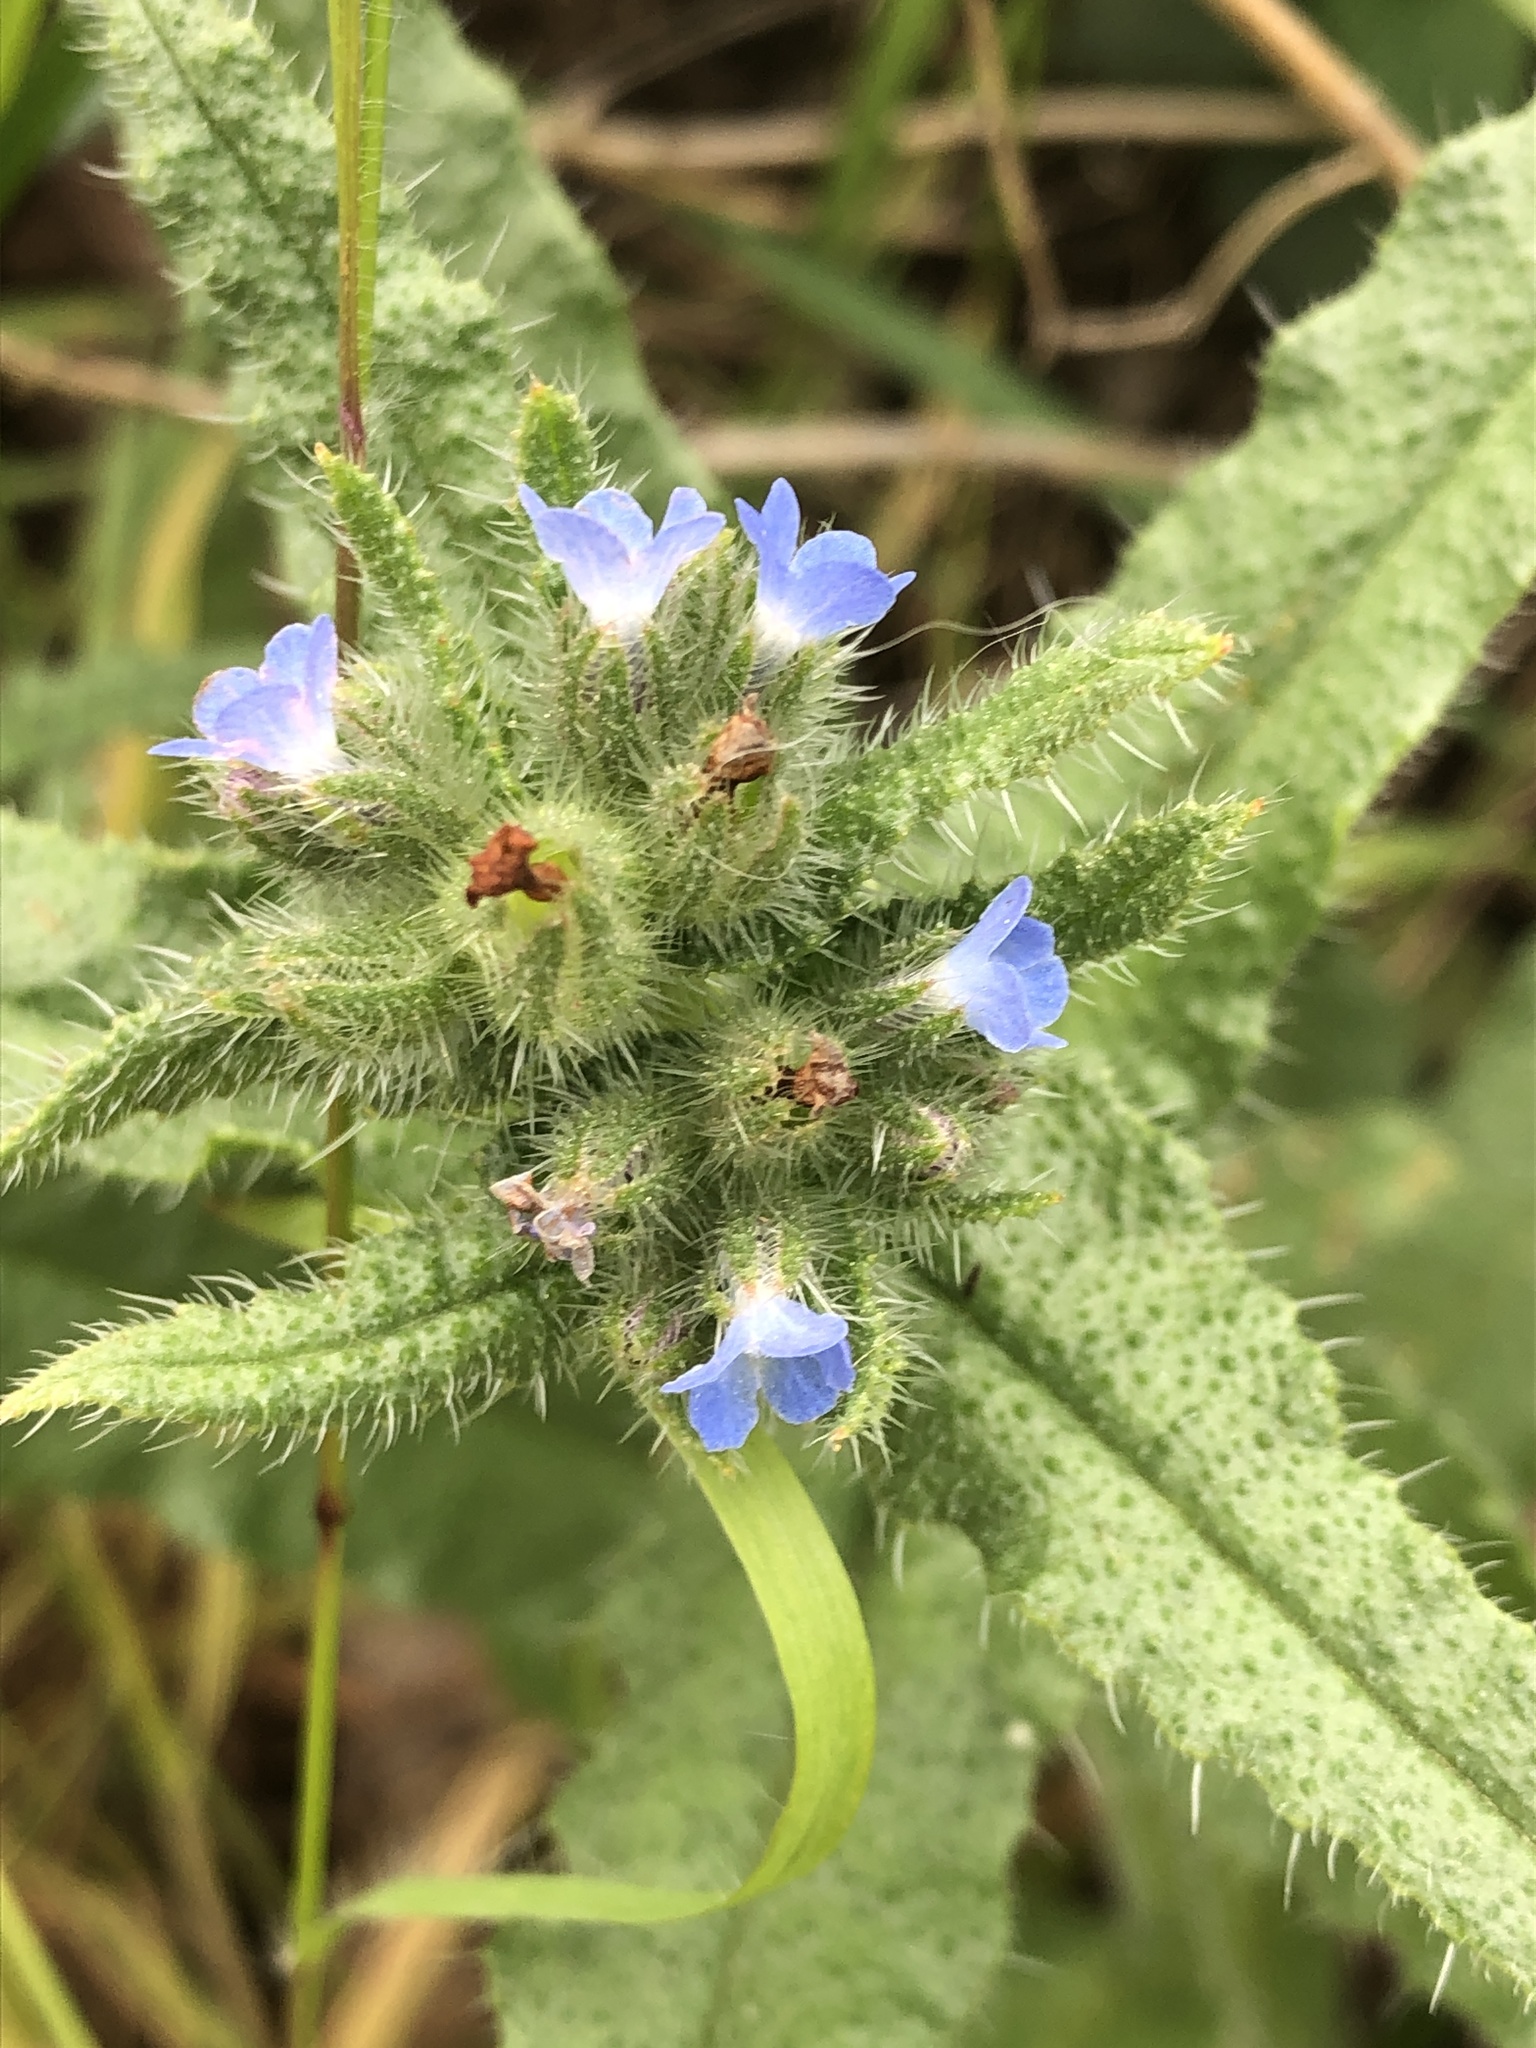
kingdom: Plantae
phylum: Tracheophyta
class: Magnoliopsida
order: Boraginales
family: Boraginaceae
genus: Lycopsis
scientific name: Lycopsis arvensis
